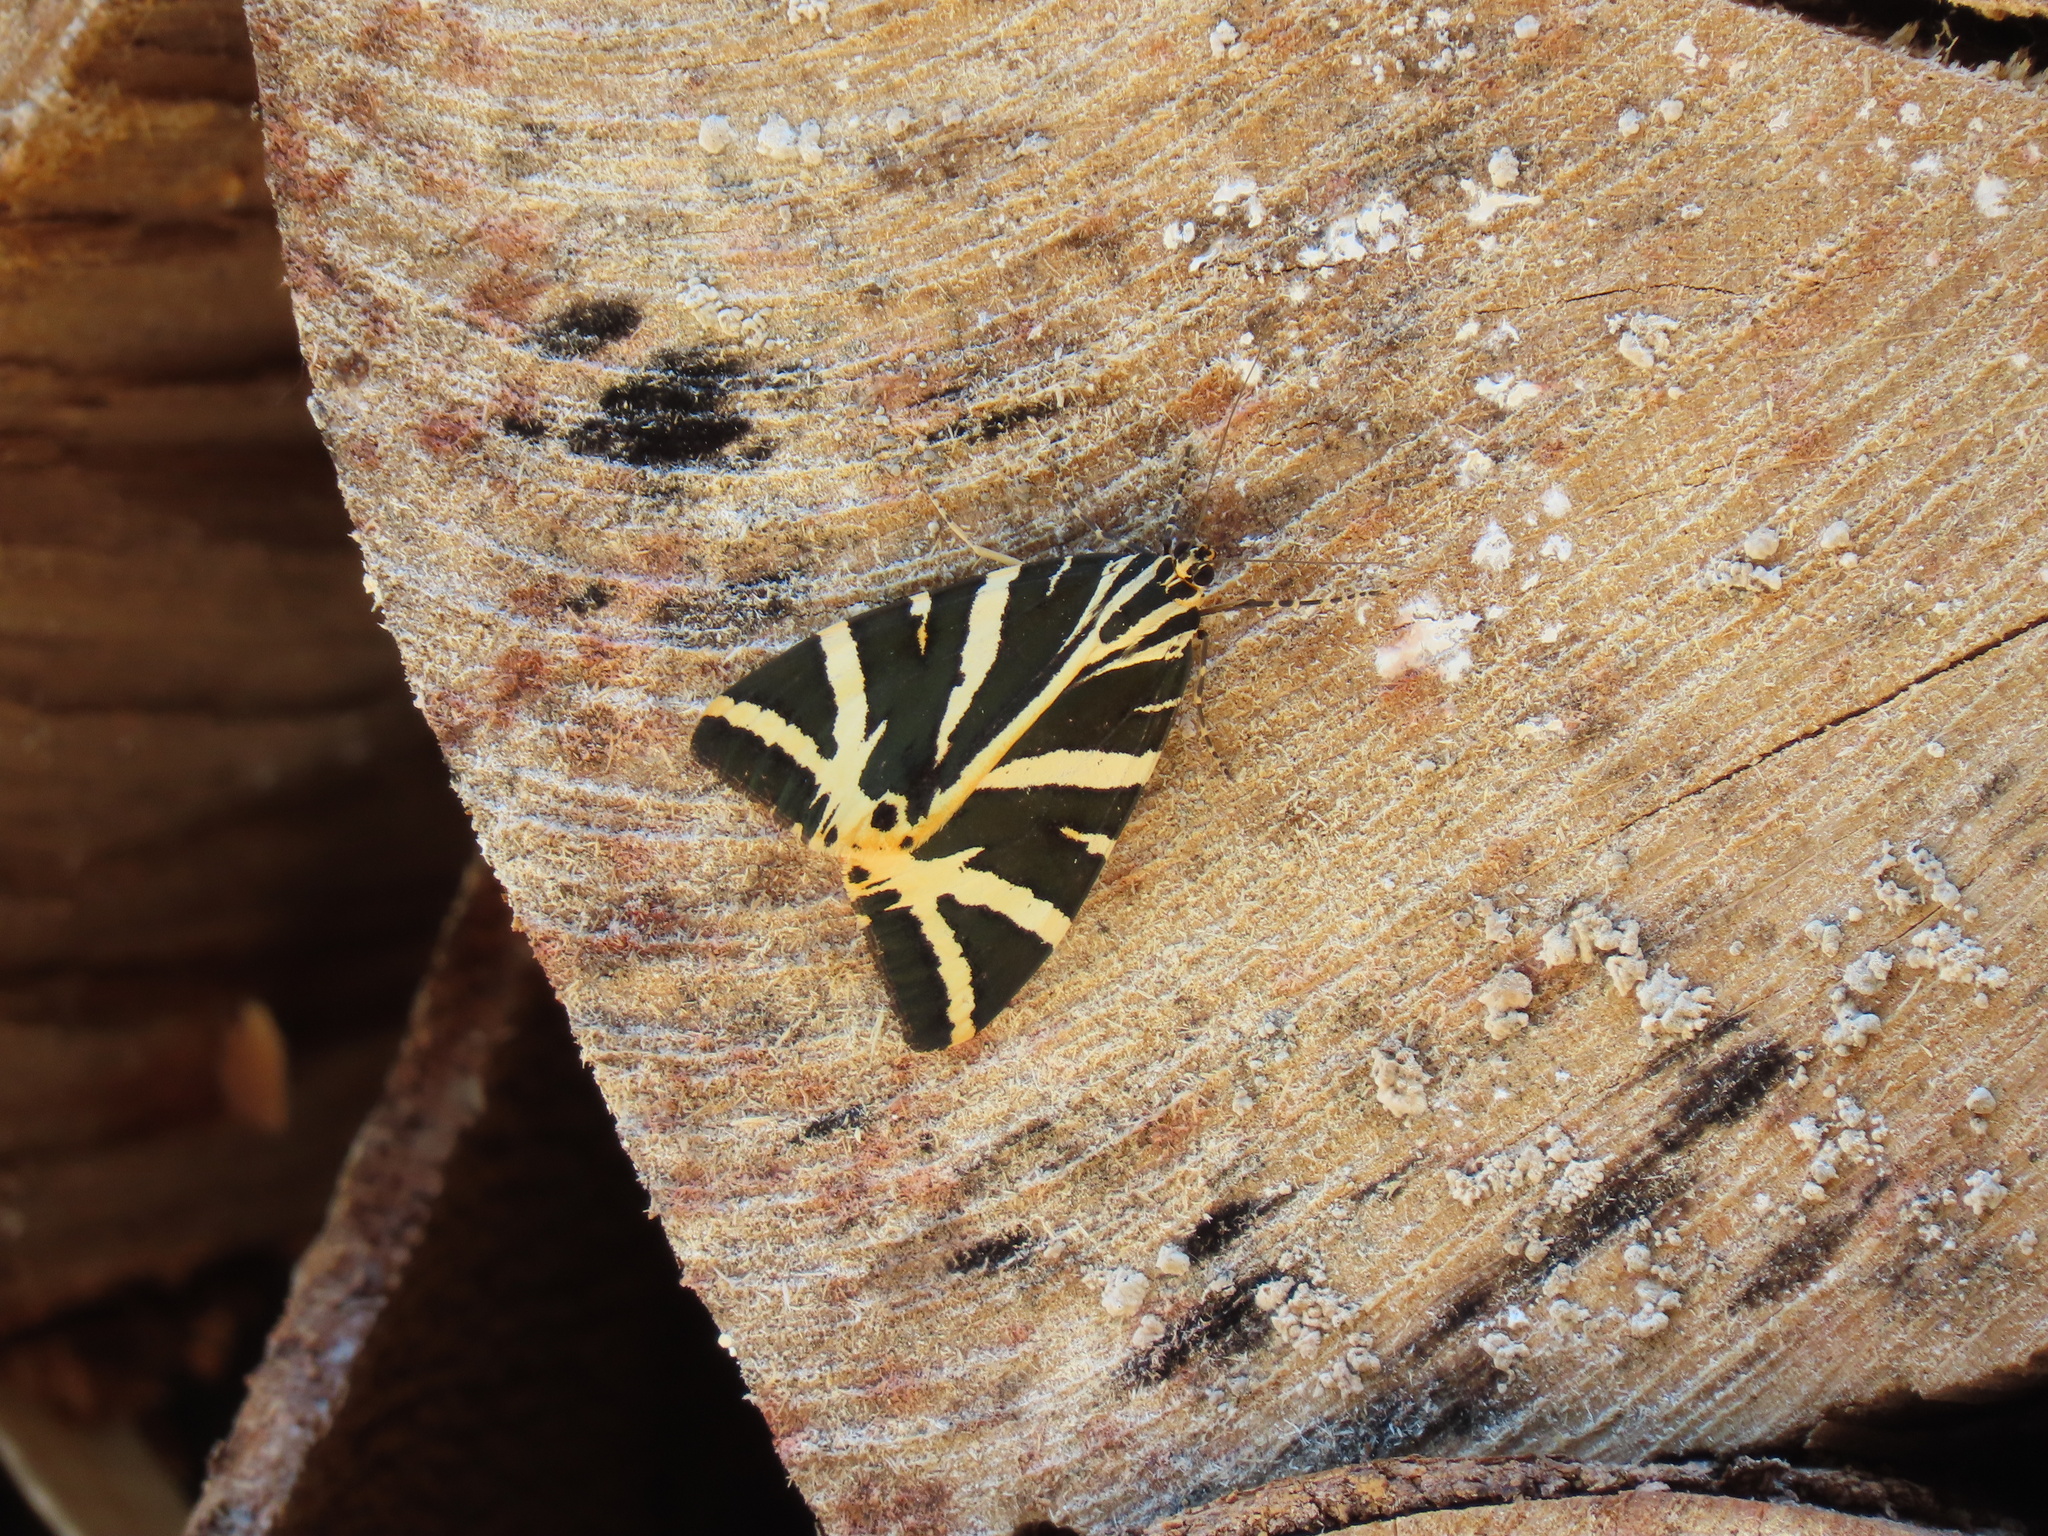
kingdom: Animalia
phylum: Arthropoda
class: Insecta
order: Lepidoptera
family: Erebidae
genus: Euplagia
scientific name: Euplagia quadripunctaria
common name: Jersey tiger
